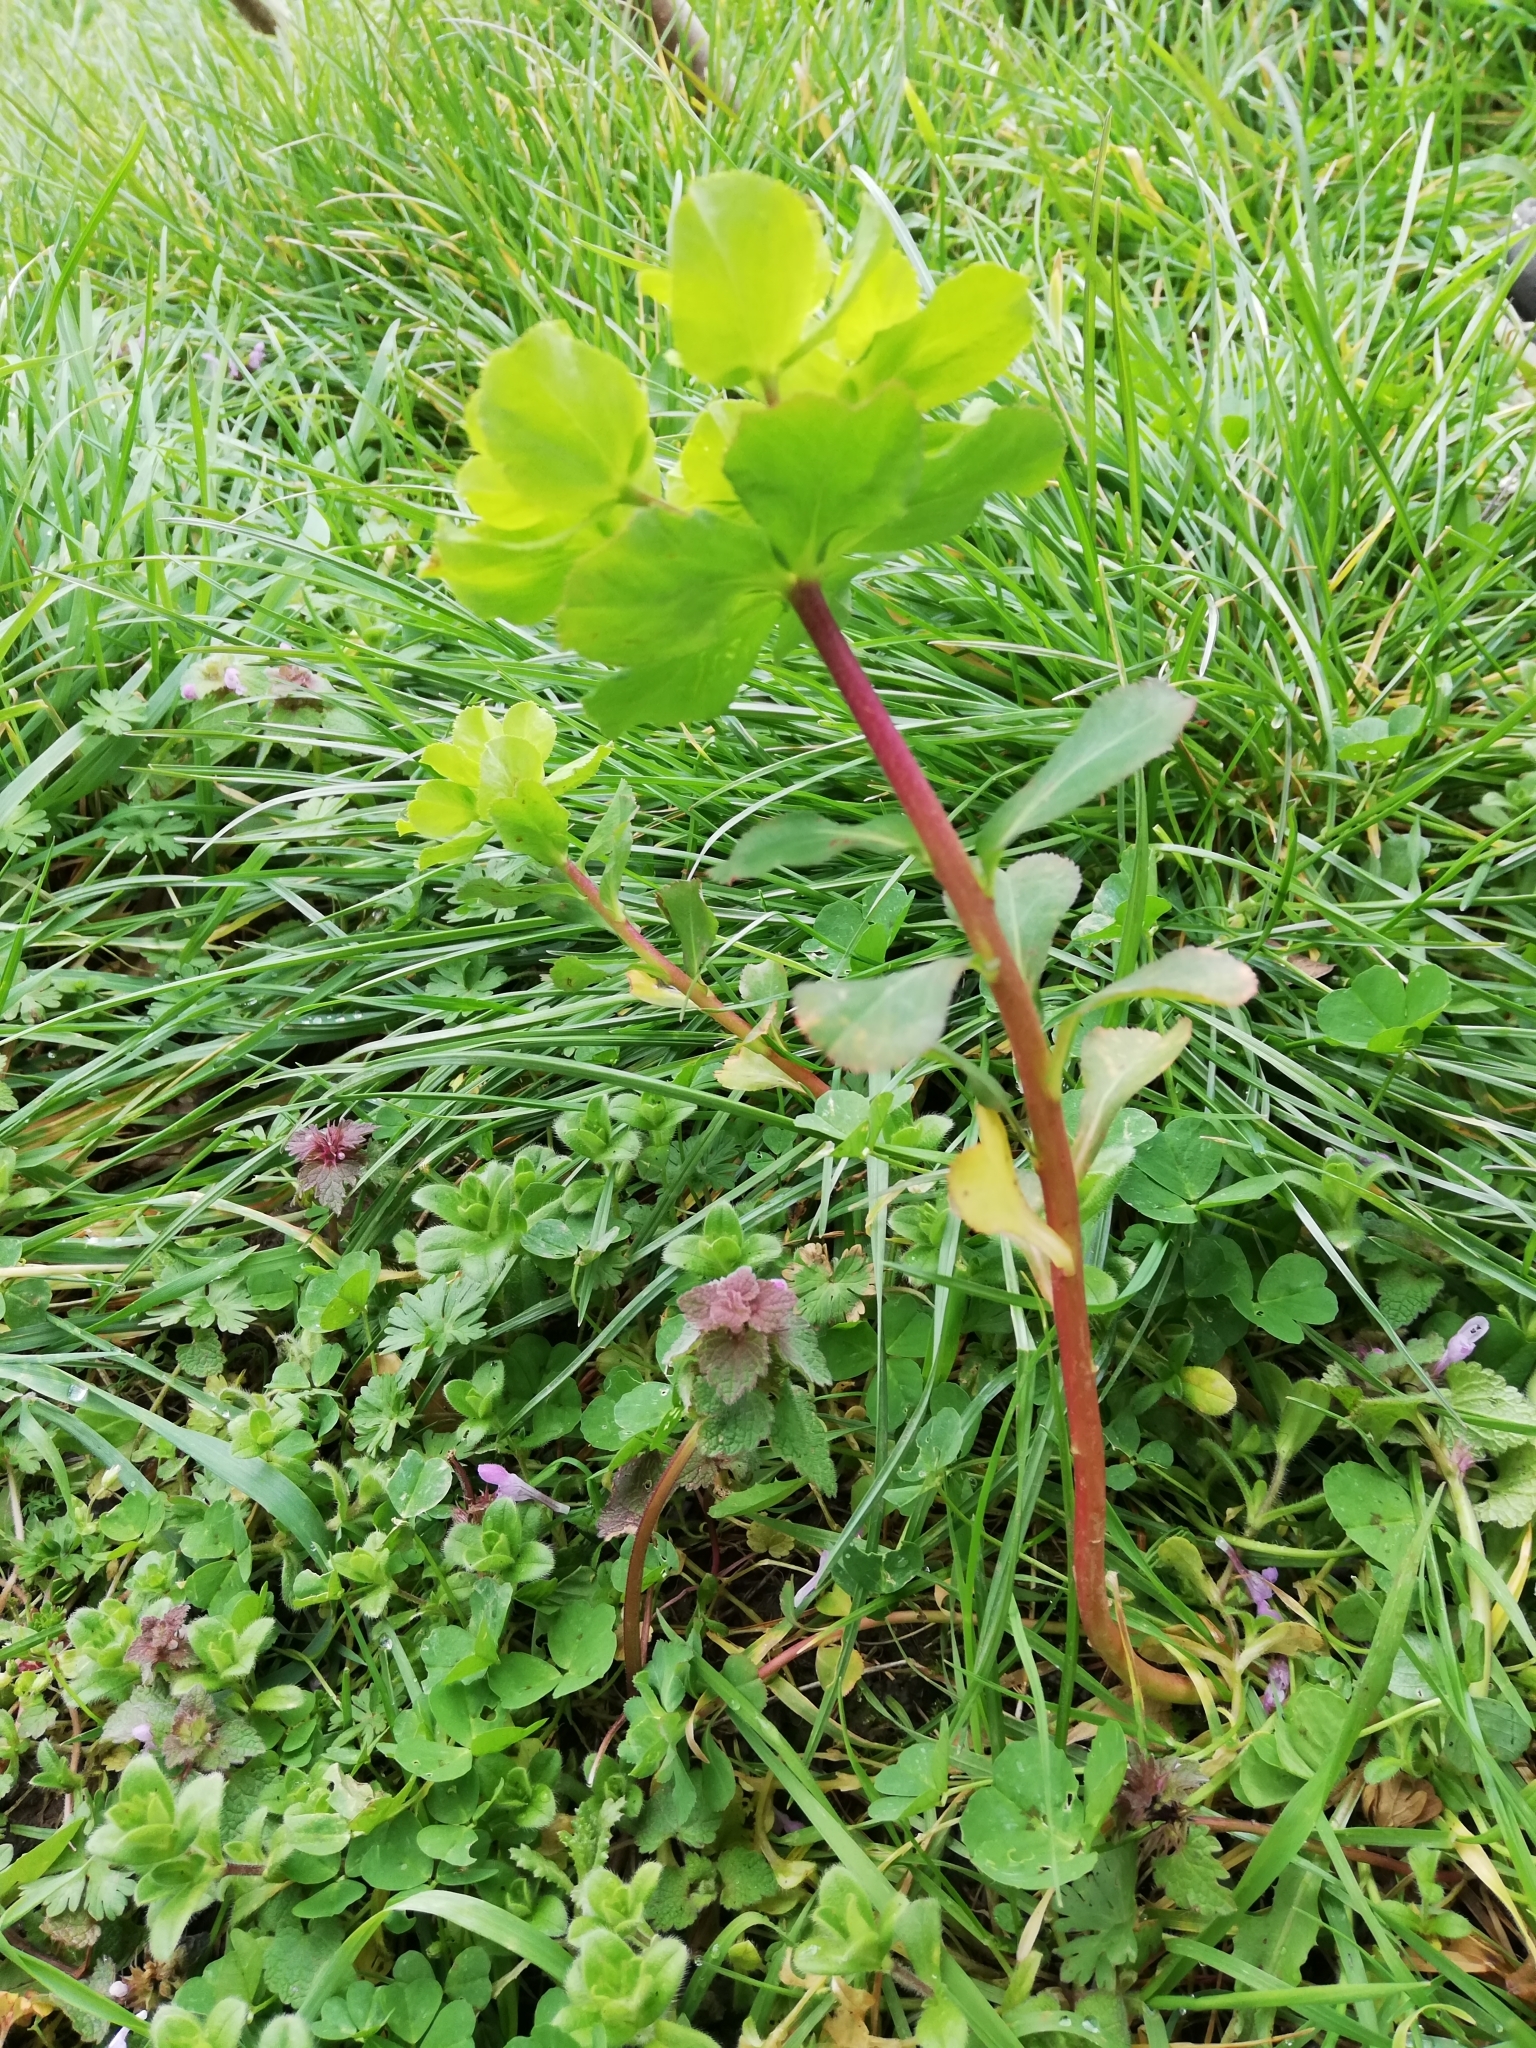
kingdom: Plantae
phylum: Tracheophyta
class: Magnoliopsida
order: Malpighiales
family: Euphorbiaceae
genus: Euphorbia
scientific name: Euphorbia helioscopia
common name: Sun spurge
